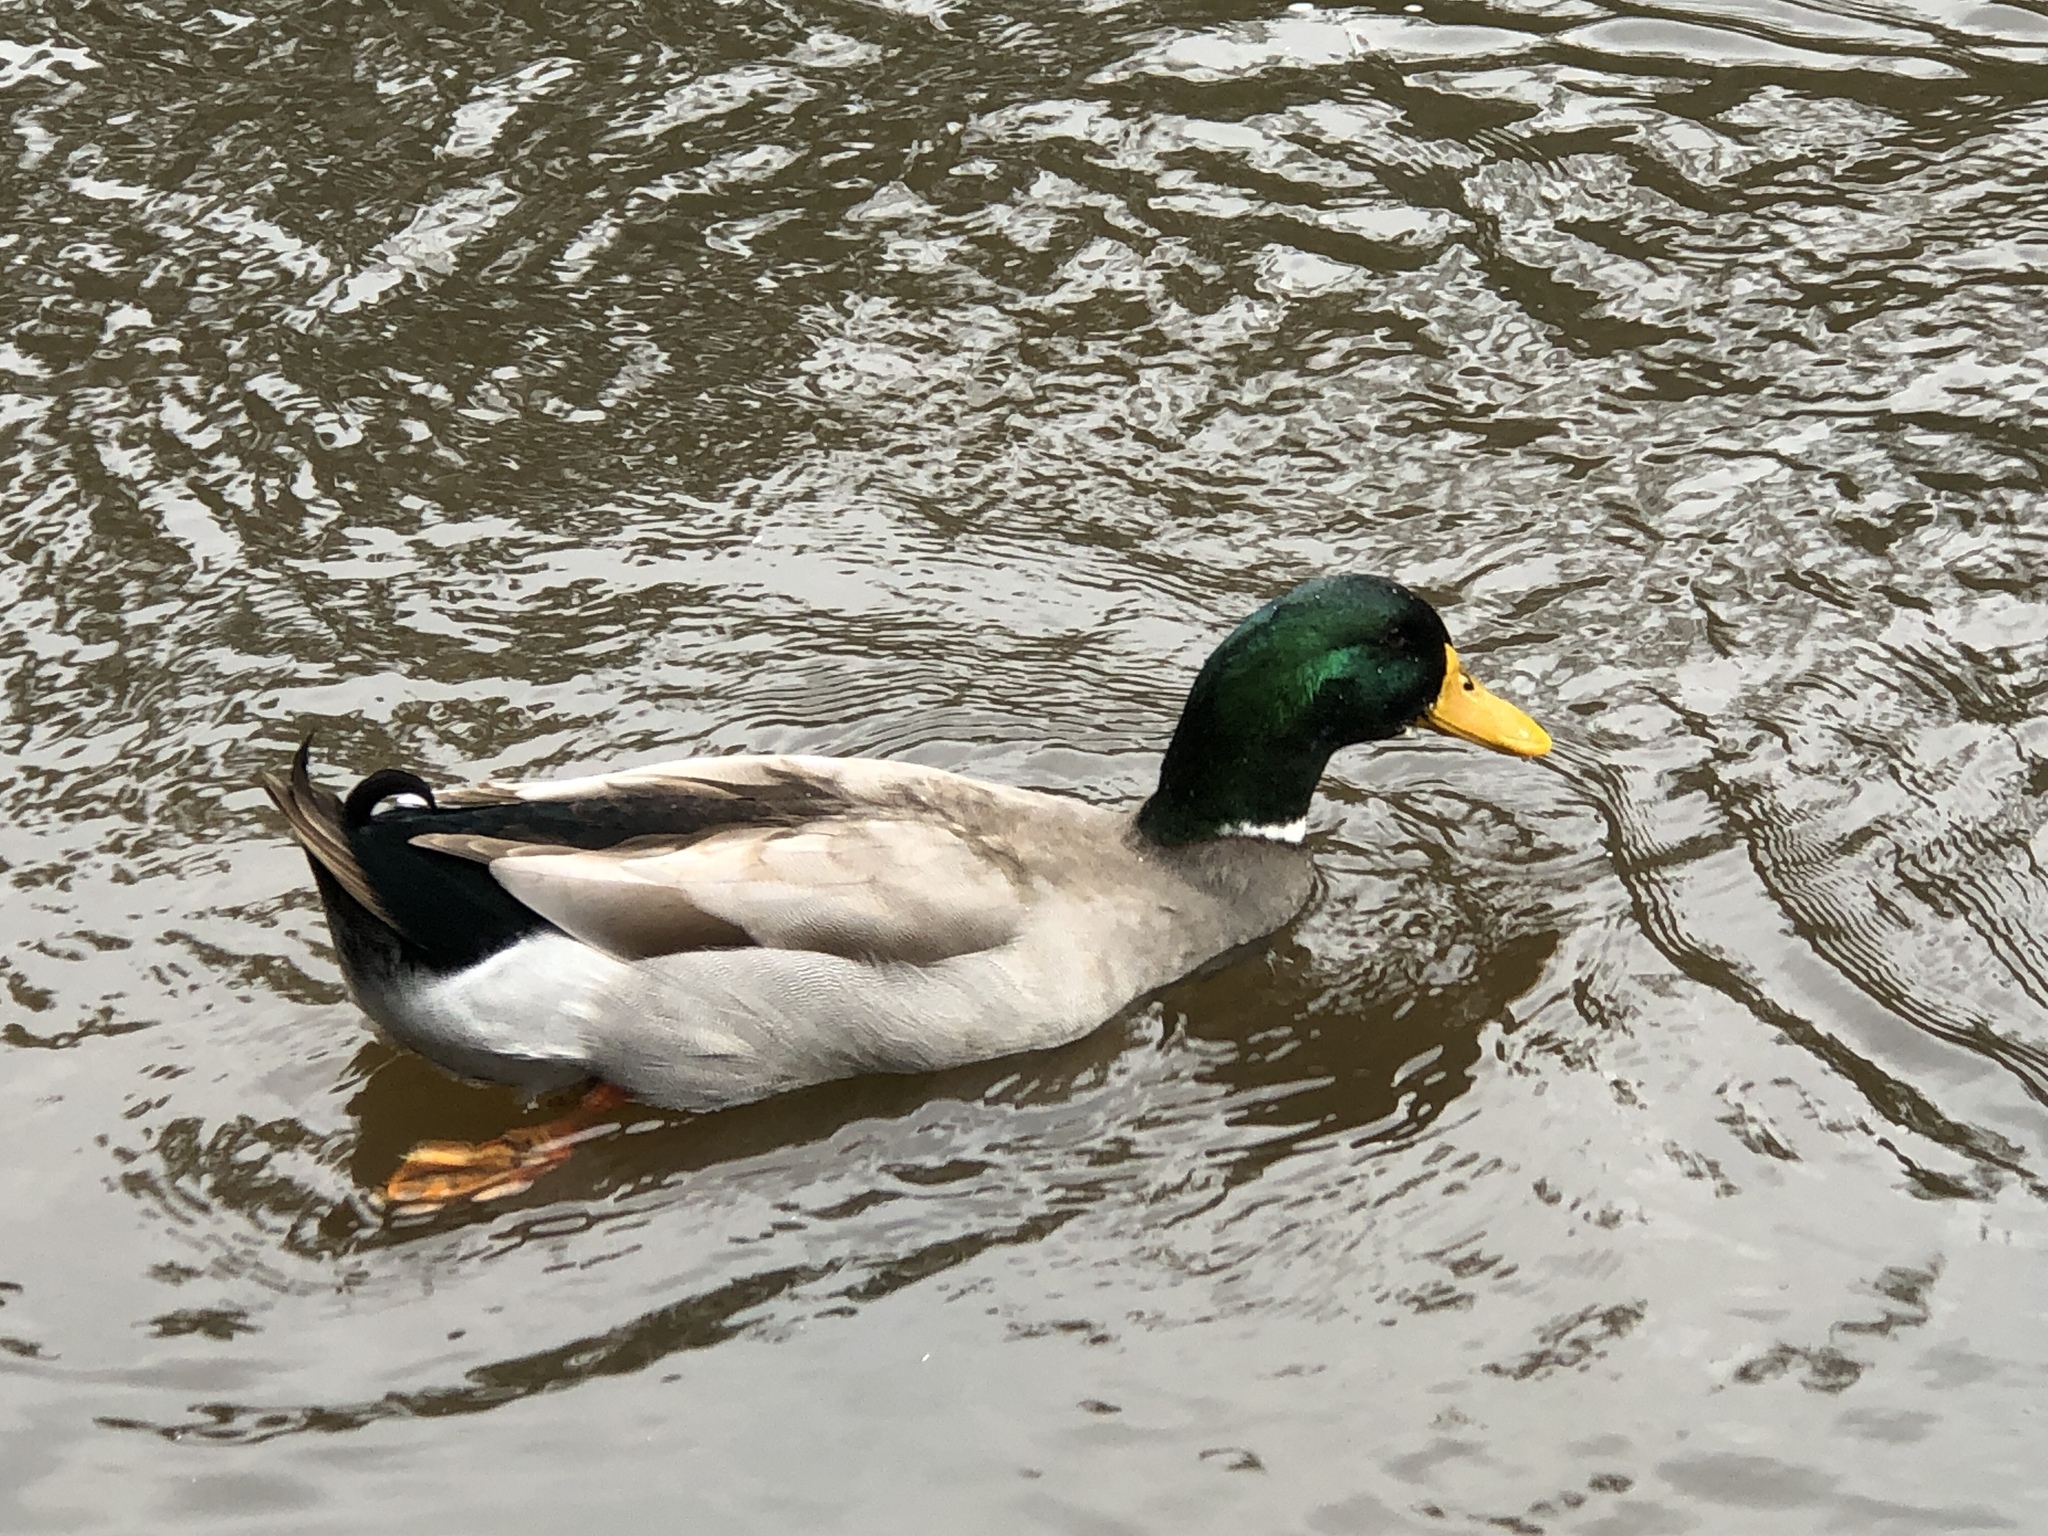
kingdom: Animalia
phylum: Chordata
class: Aves
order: Anseriformes
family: Anatidae
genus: Anas
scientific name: Anas platyrhynchos
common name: Mallard
